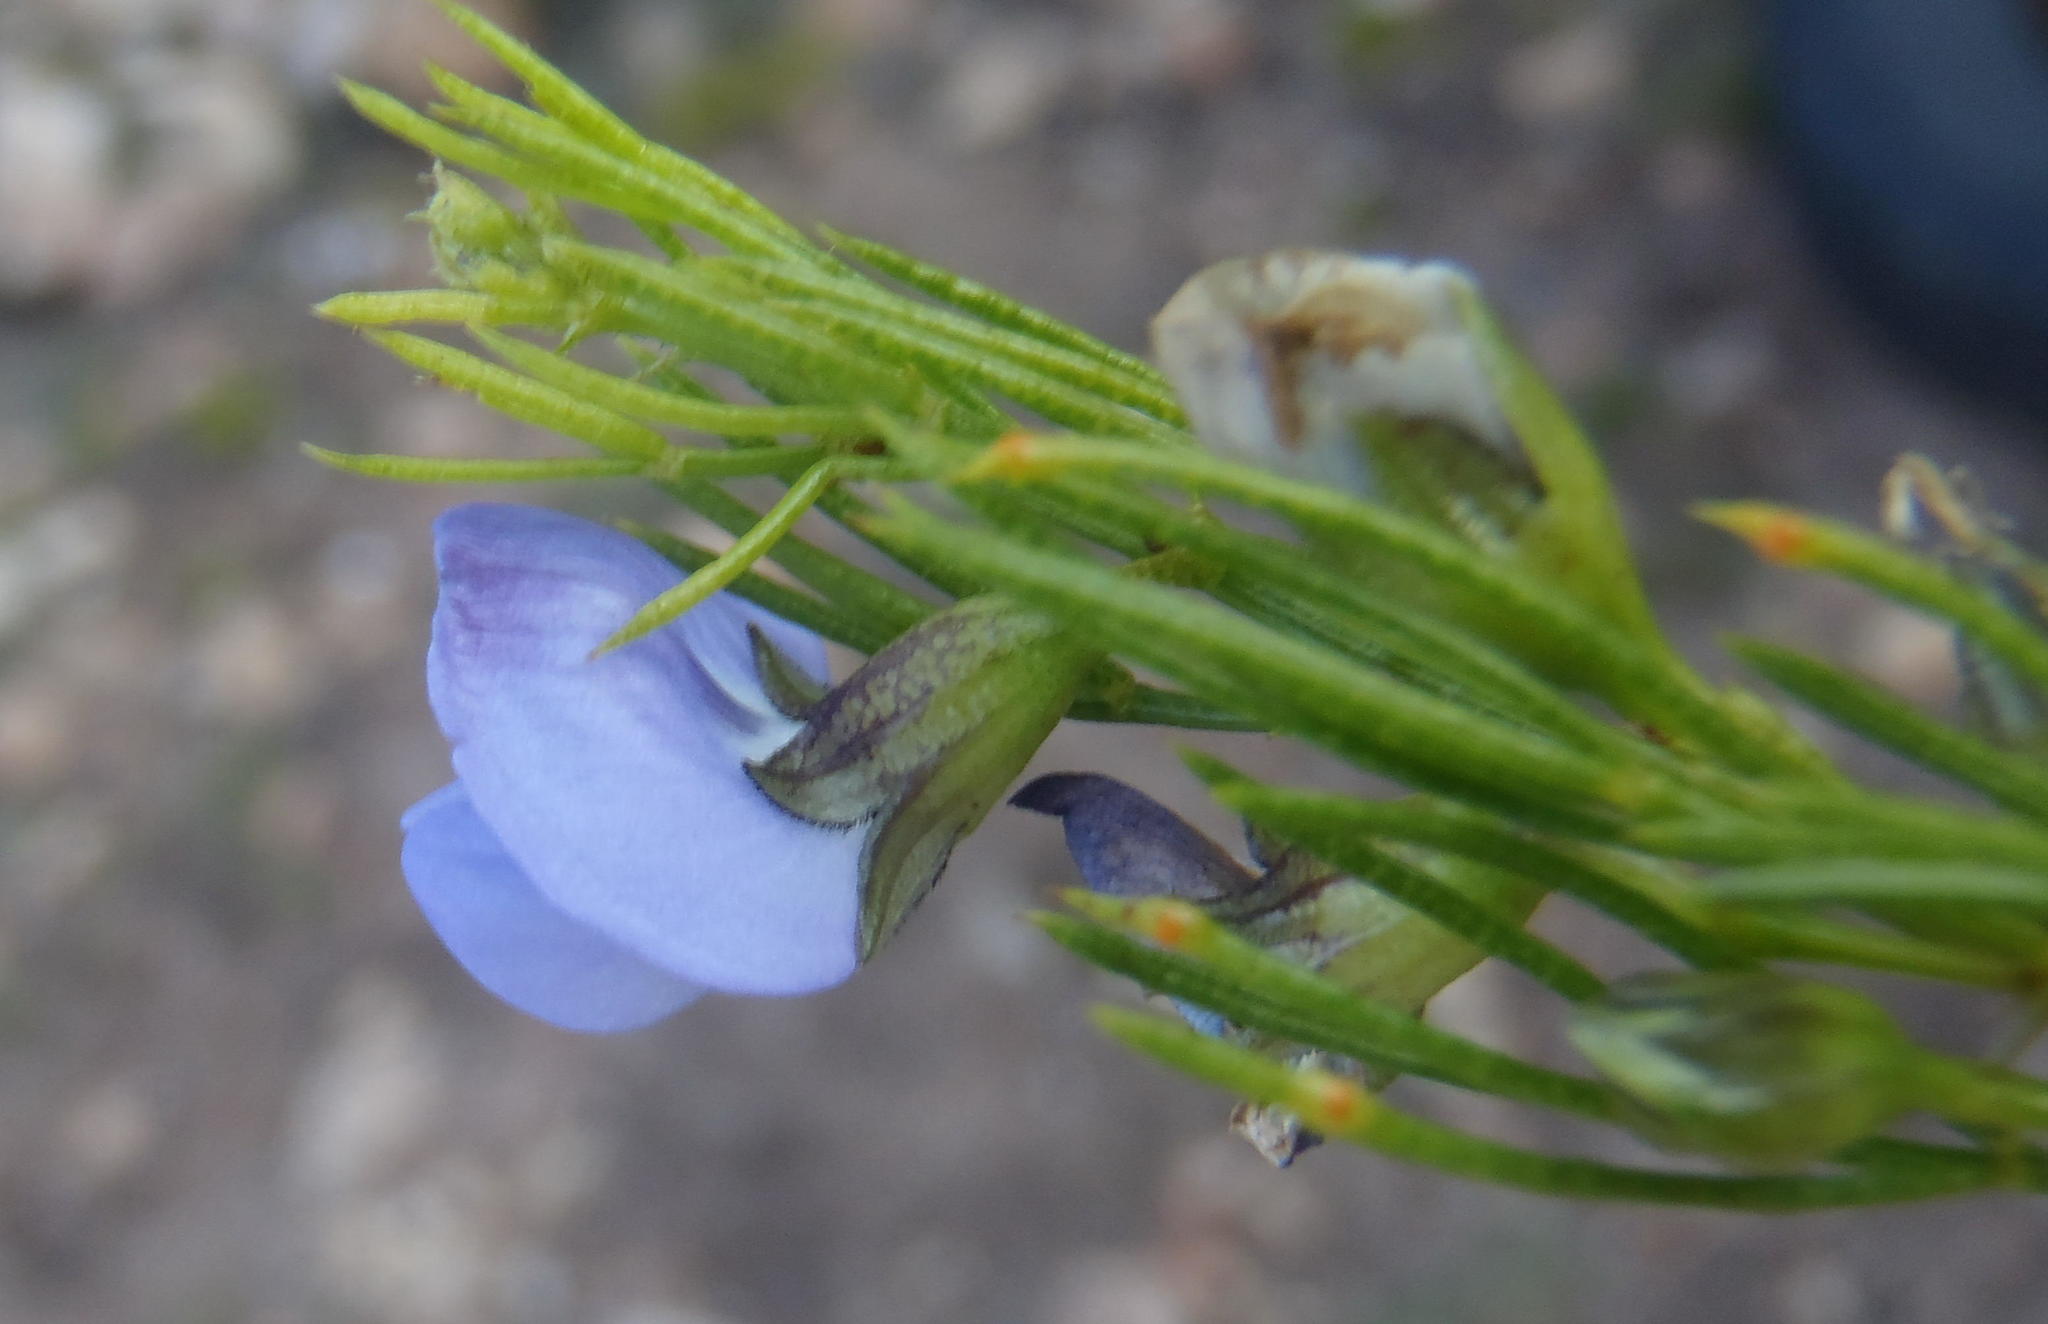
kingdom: Plantae
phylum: Tracheophyta
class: Magnoliopsida
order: Fabales
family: Fabaceae
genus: Psoralea
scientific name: Psoralea laevigata
